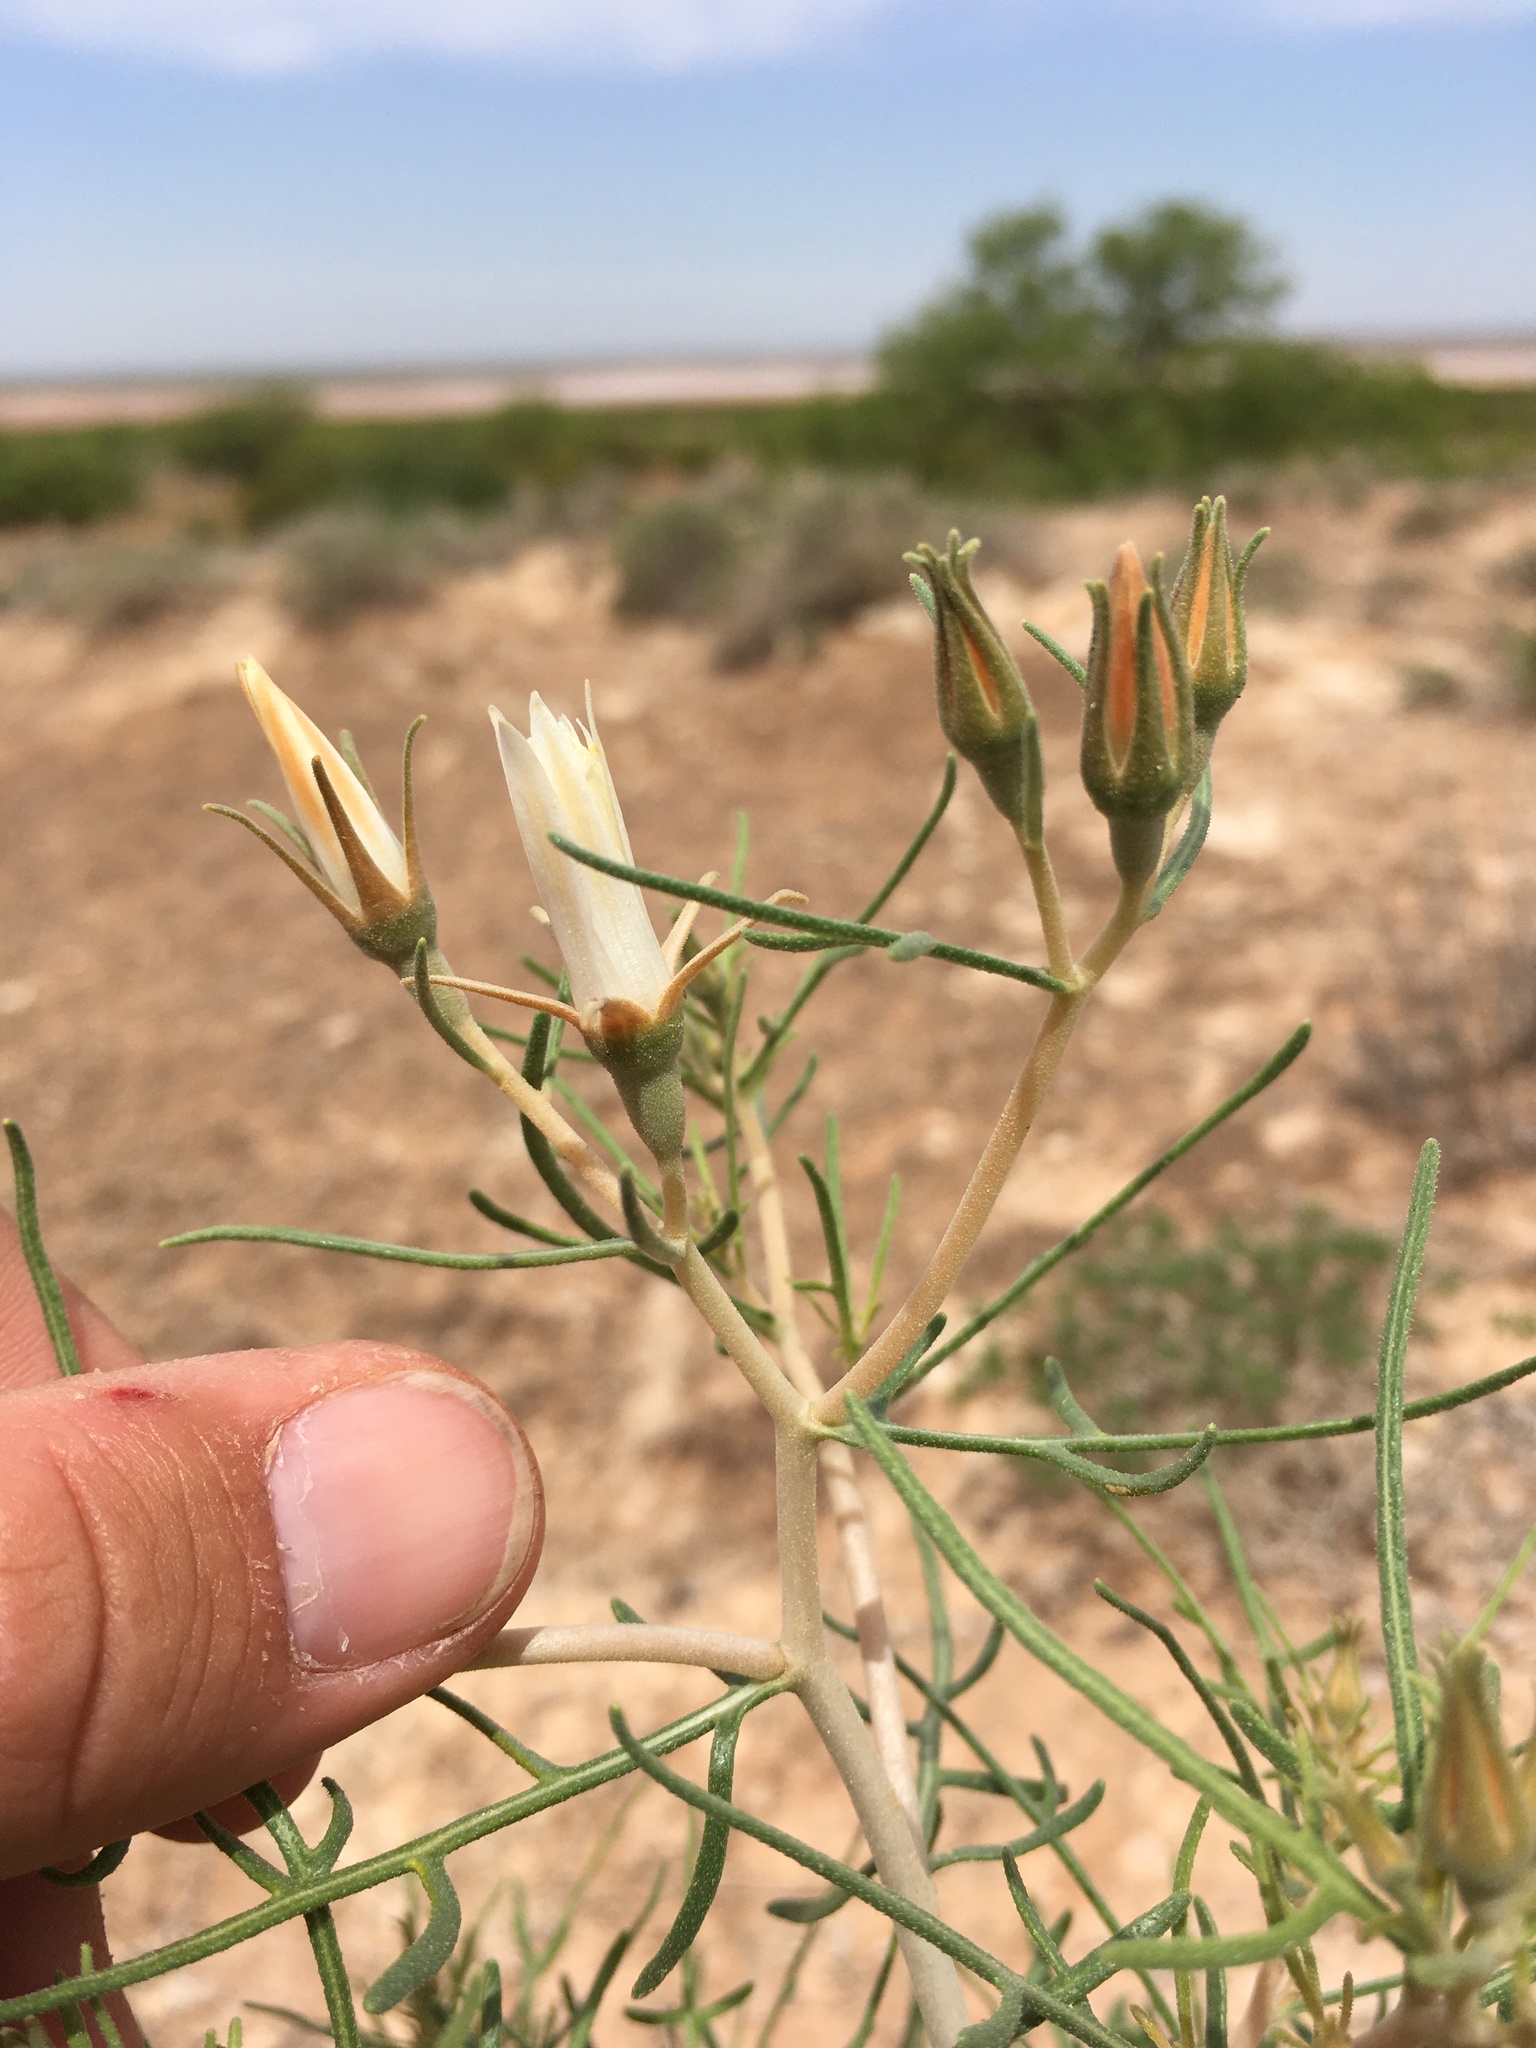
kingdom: Plantae
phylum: Tracheophyta
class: Magnoliopsida
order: Cornales
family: Loasaceae
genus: Mentzelia
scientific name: Mentzelia humilis
